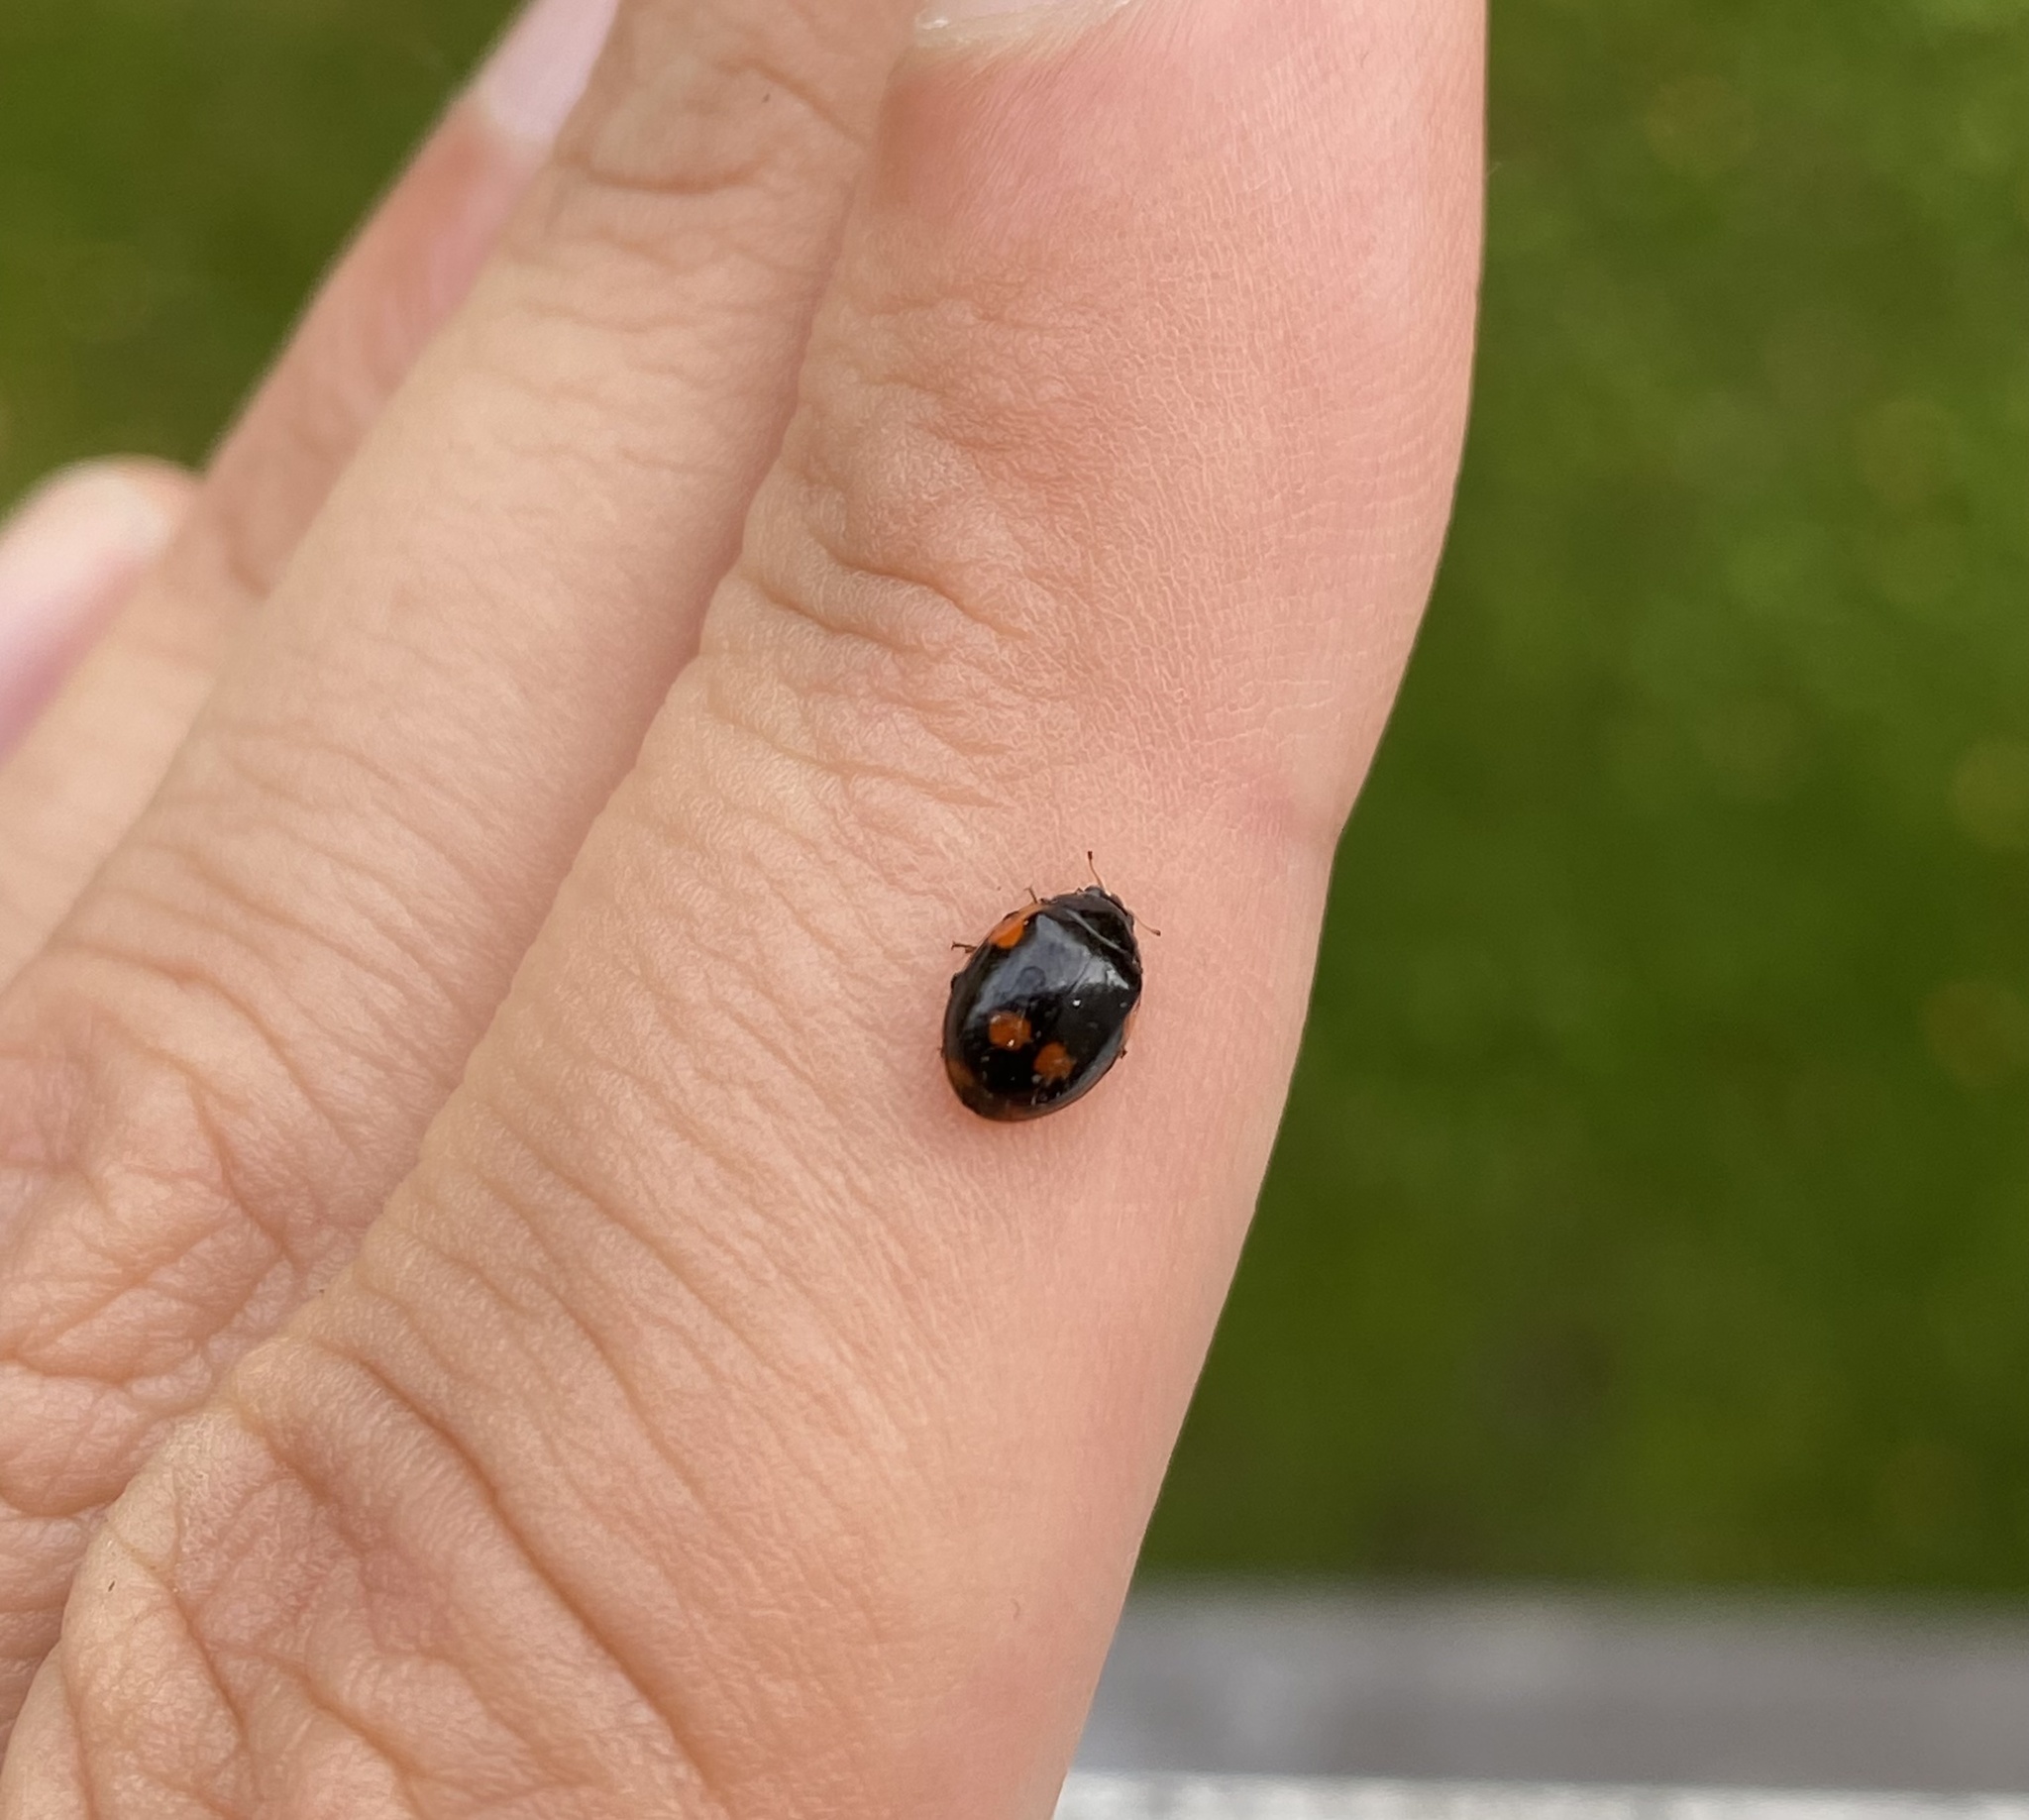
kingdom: Animalia
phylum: Arthropoda
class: Insecta
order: Coleoptera
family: Coccinellidae
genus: Adalia
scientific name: Adalia bipunctata
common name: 2-spot ladybird
